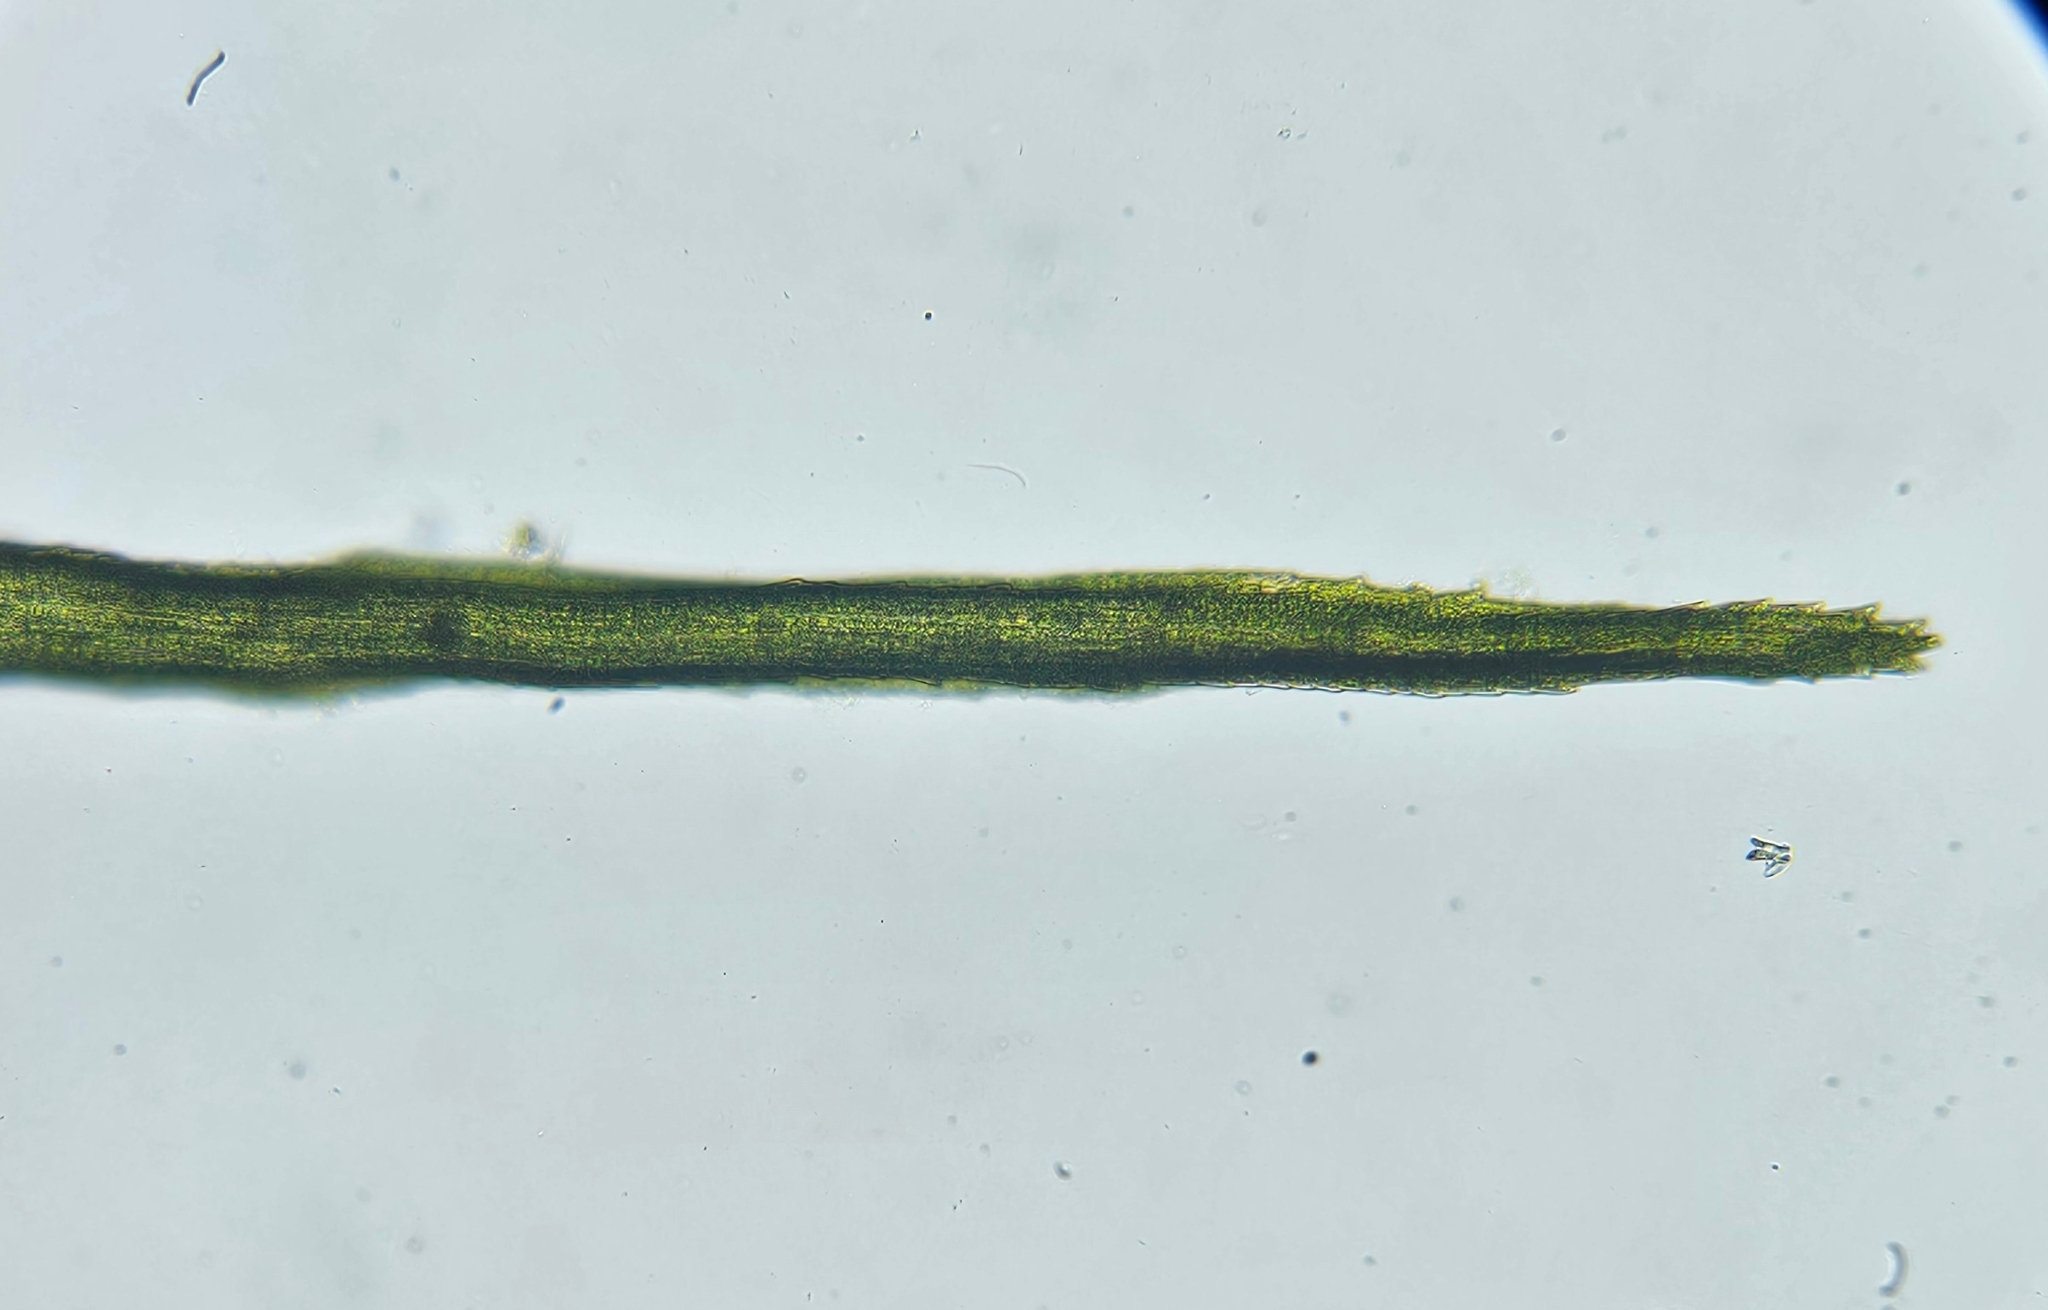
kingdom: Plantae
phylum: Bryophyta
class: Bryopsida
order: Dicranales
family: Leucobryaceae
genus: Campylopus
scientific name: Campylopus flexuosus
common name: Rusty swan-neck moss
